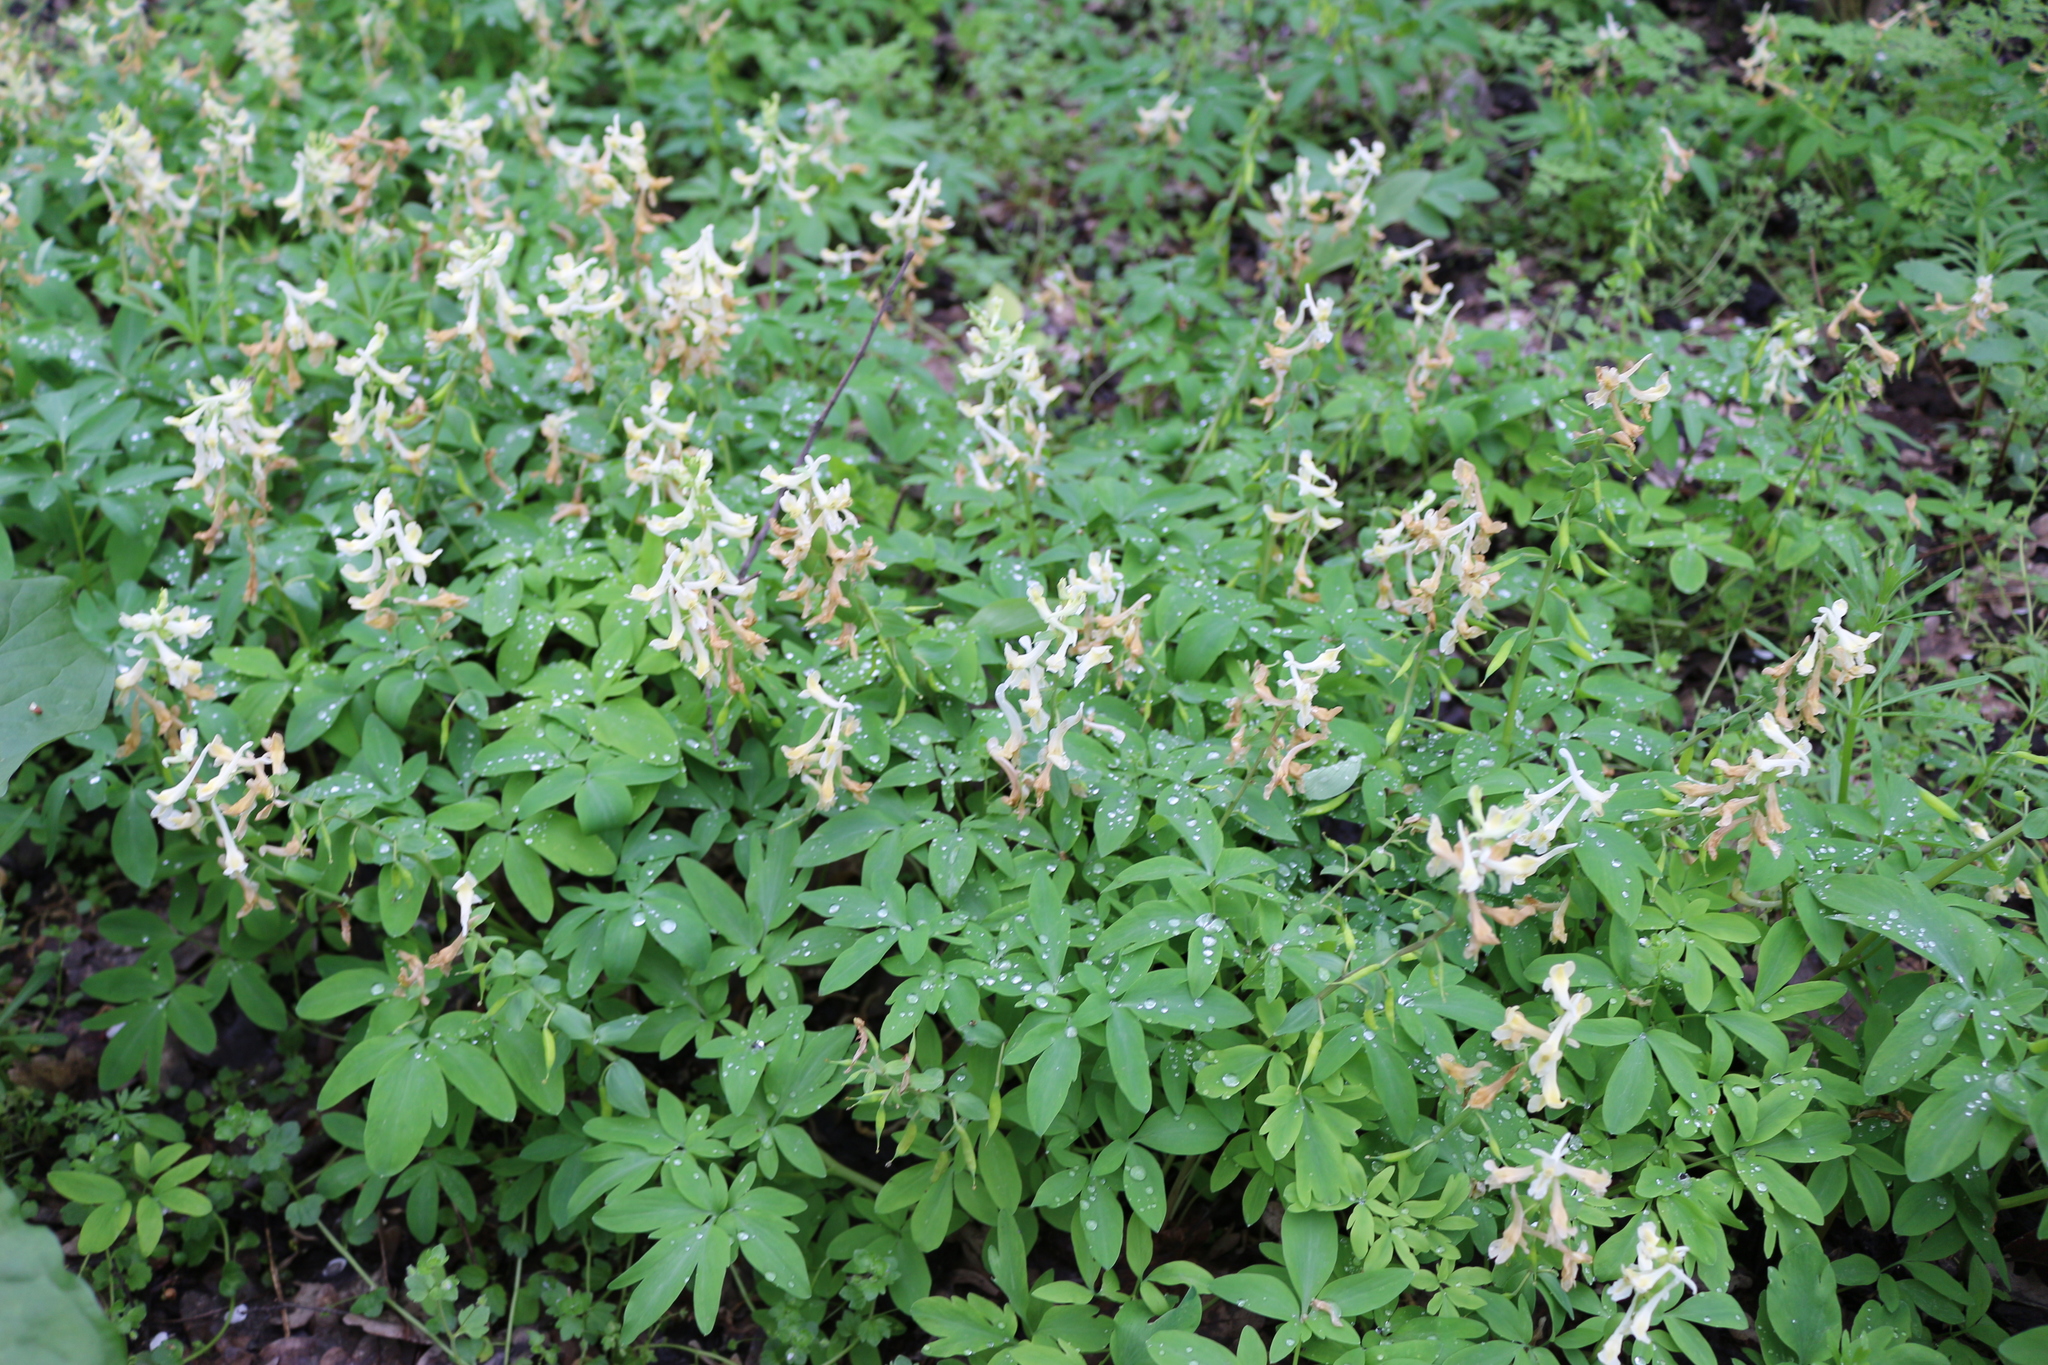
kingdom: Plantae
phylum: Tracheophyta
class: Magnoliopsida
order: Ranunculales
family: Papaveraceae
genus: Corydalis
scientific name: Corydalis cava
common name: Hollowroot
